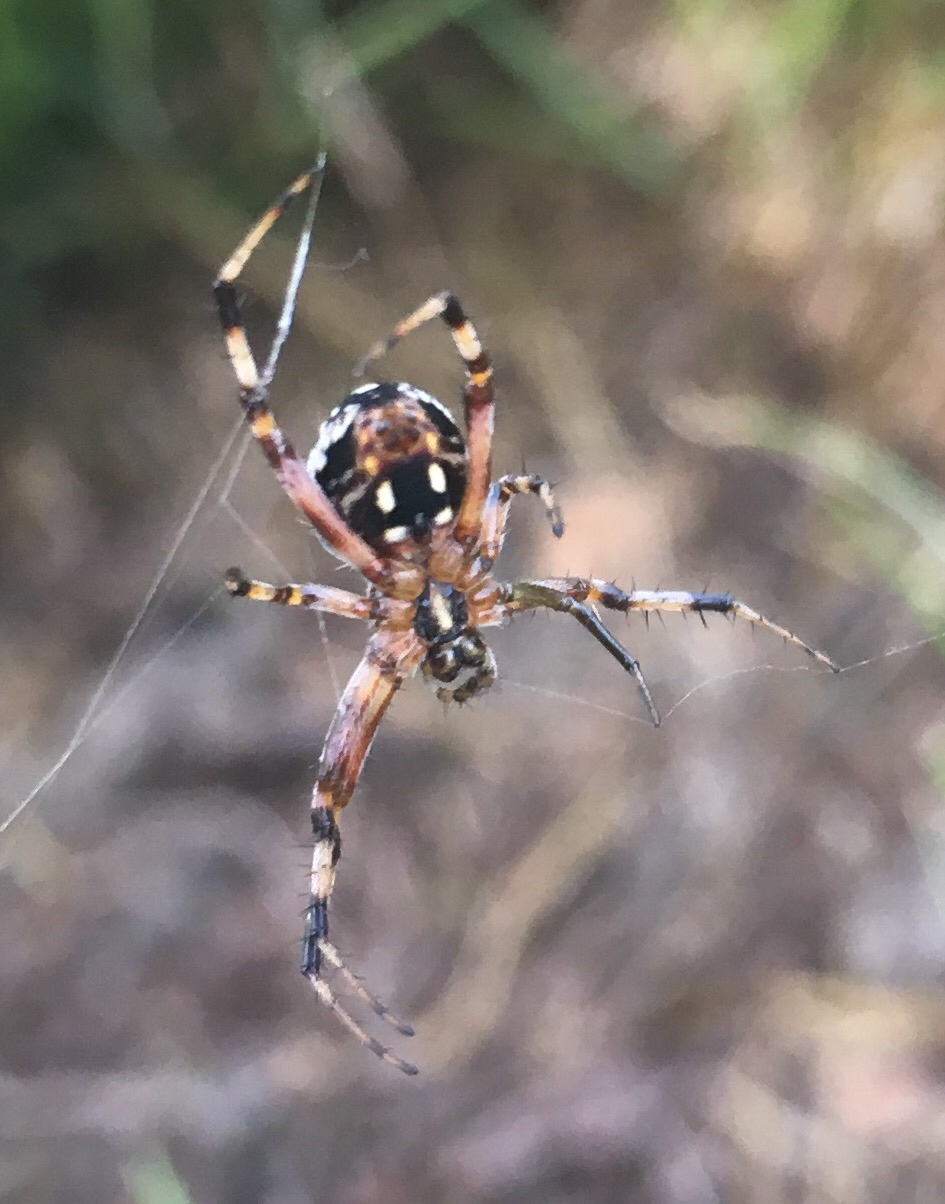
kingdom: Animalia
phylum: Arthropoda
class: Arachnida
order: Araneae
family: Araneidae
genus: Neoscona
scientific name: Neoscona oaxacensis
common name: Orb weavers
